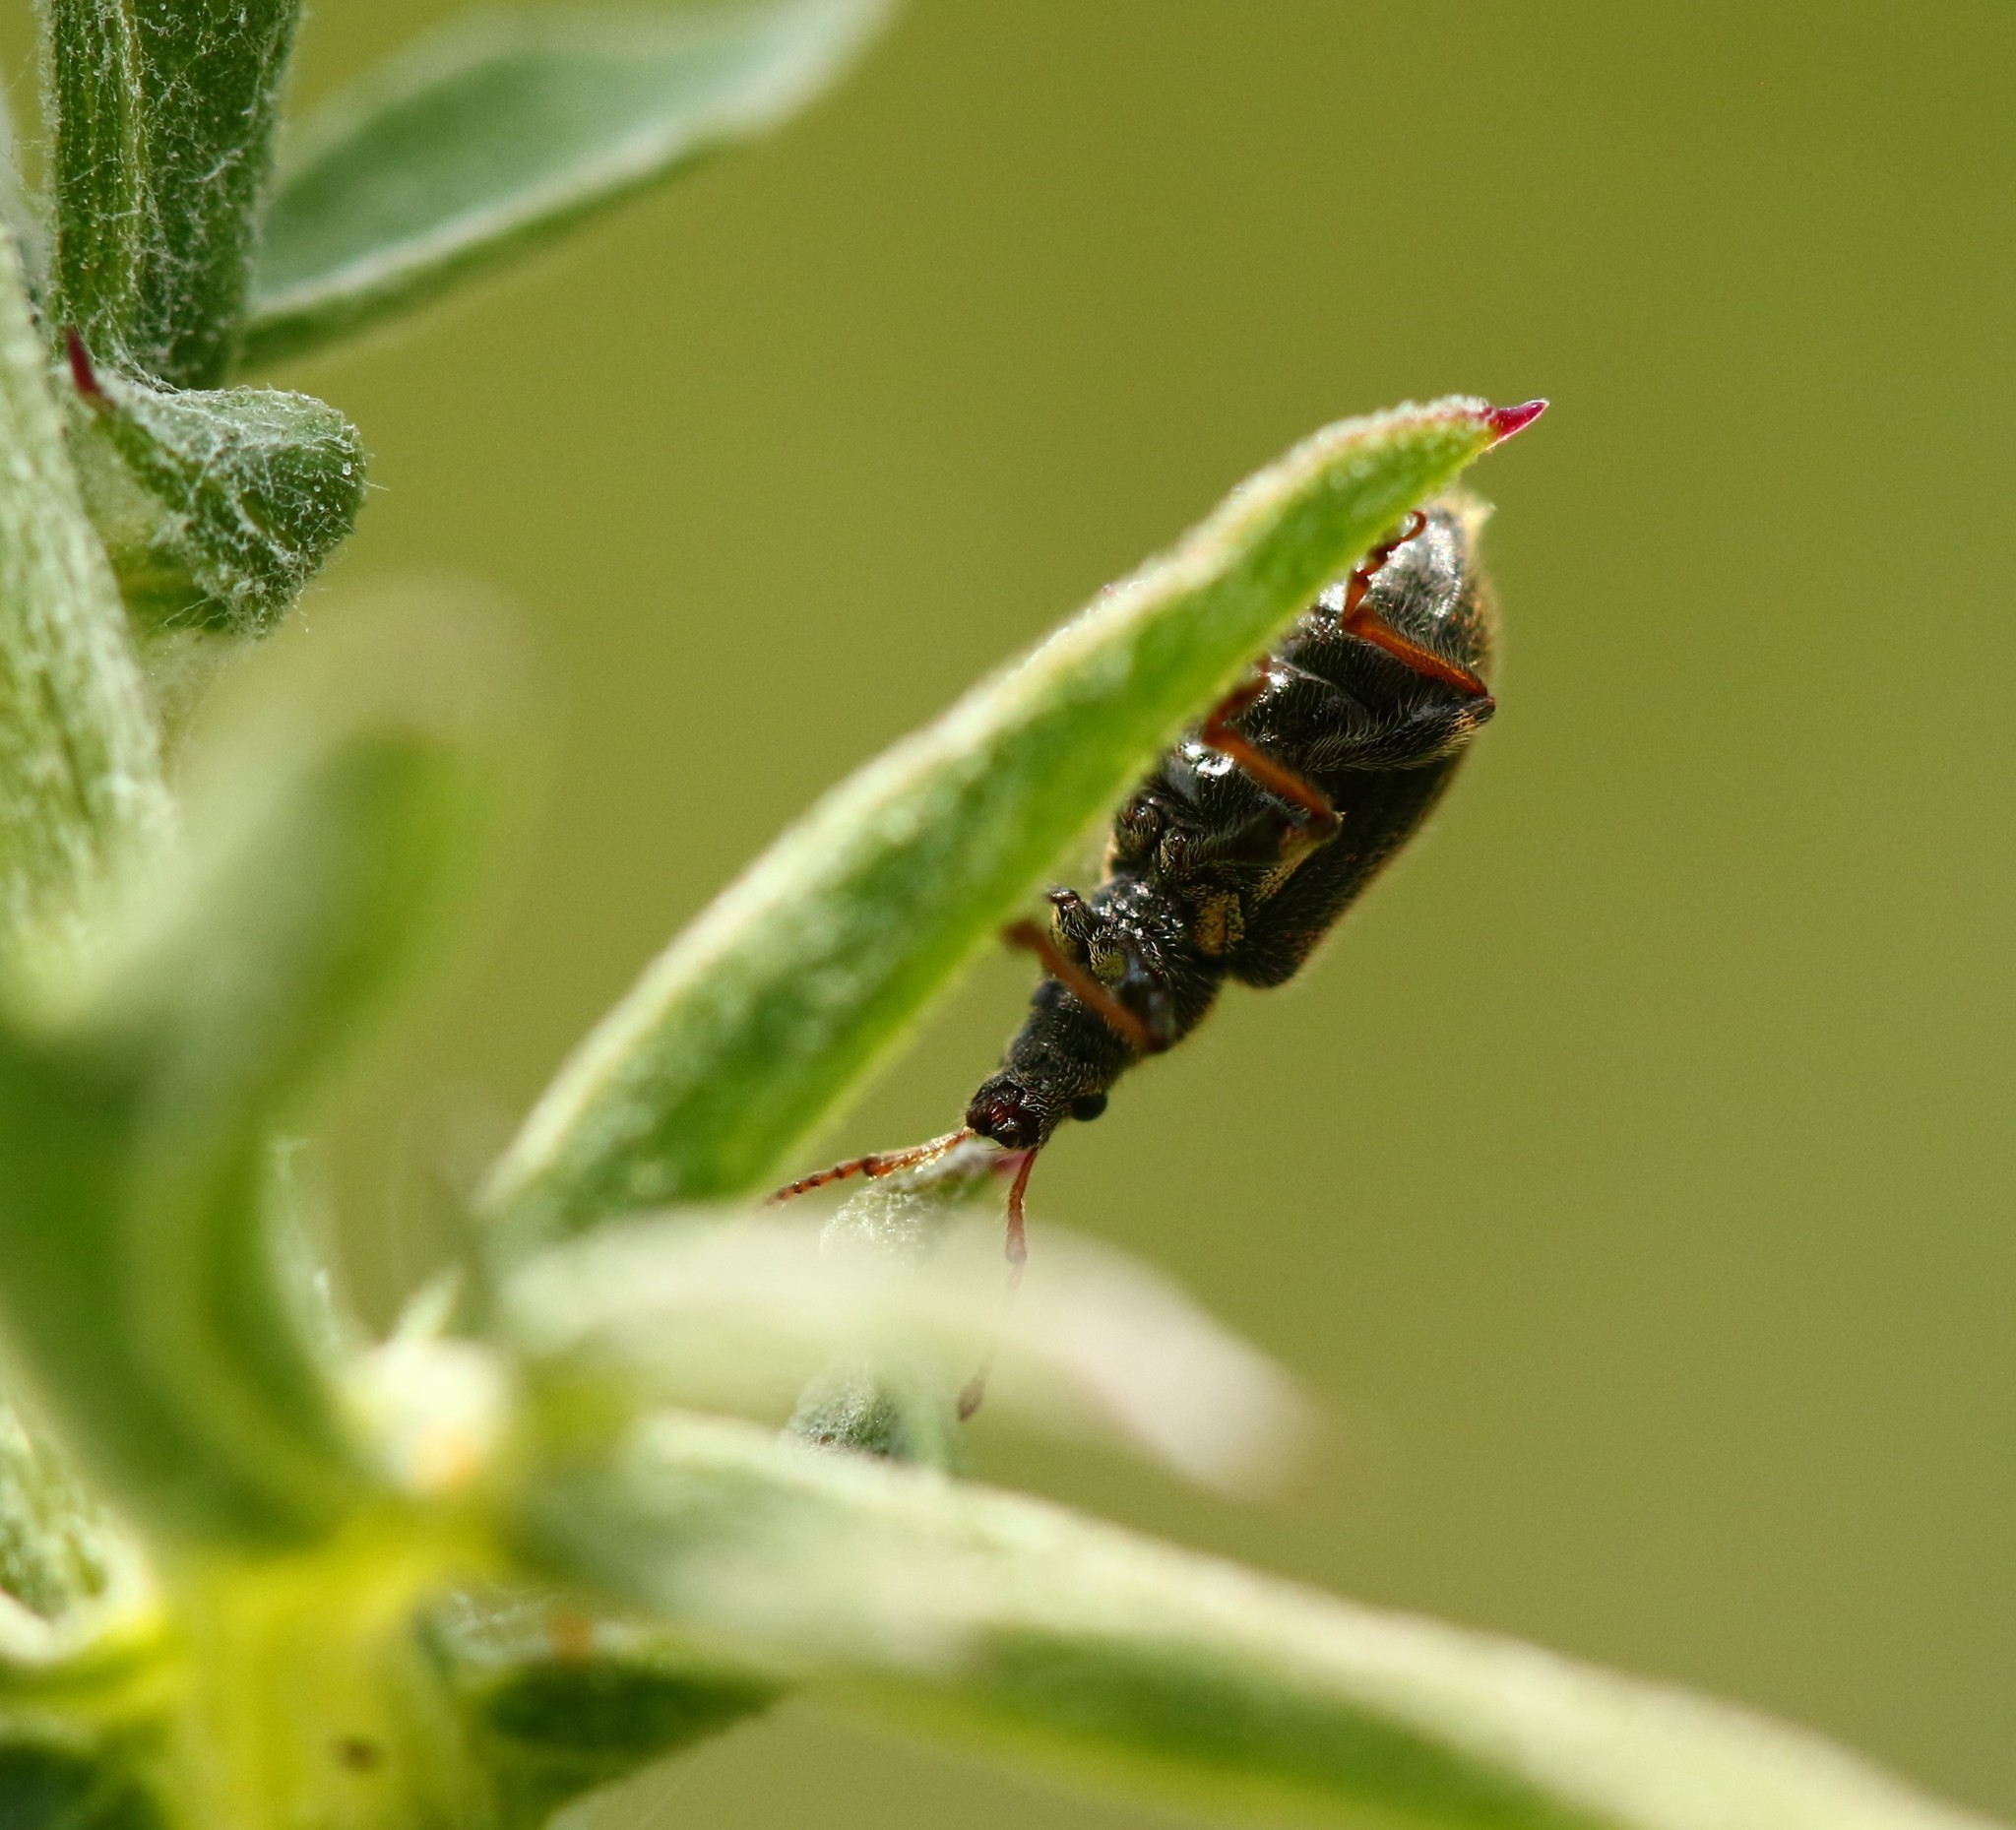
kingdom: Animalia
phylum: Arthropoda
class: Insecta
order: Coleoptera
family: Curculionidae
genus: Phyllobius
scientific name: Phyllobius oblongus
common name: Brown leaf weevil
